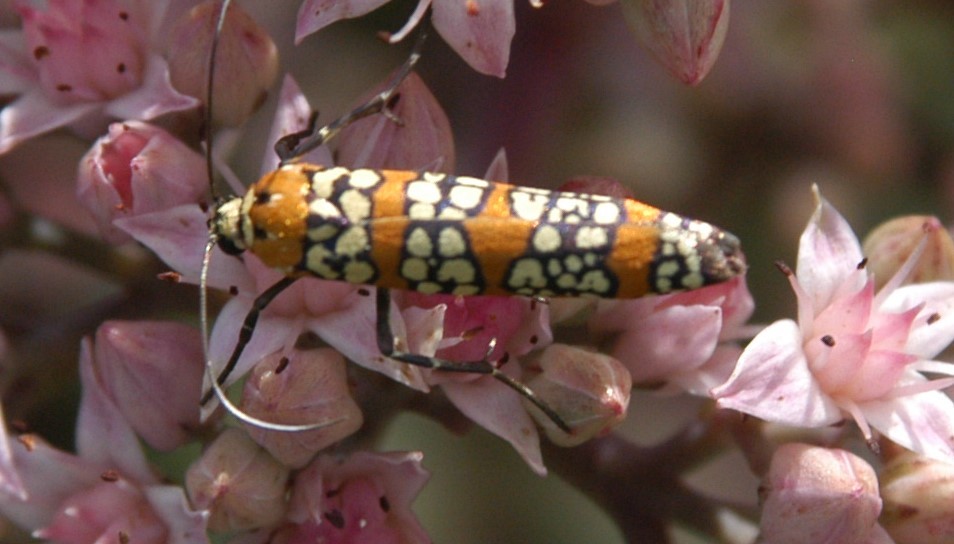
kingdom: Animalia
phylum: Arthropoda
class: Insecta
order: Lepidoptera
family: Attevidae
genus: Atteva
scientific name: Atteva punctella
